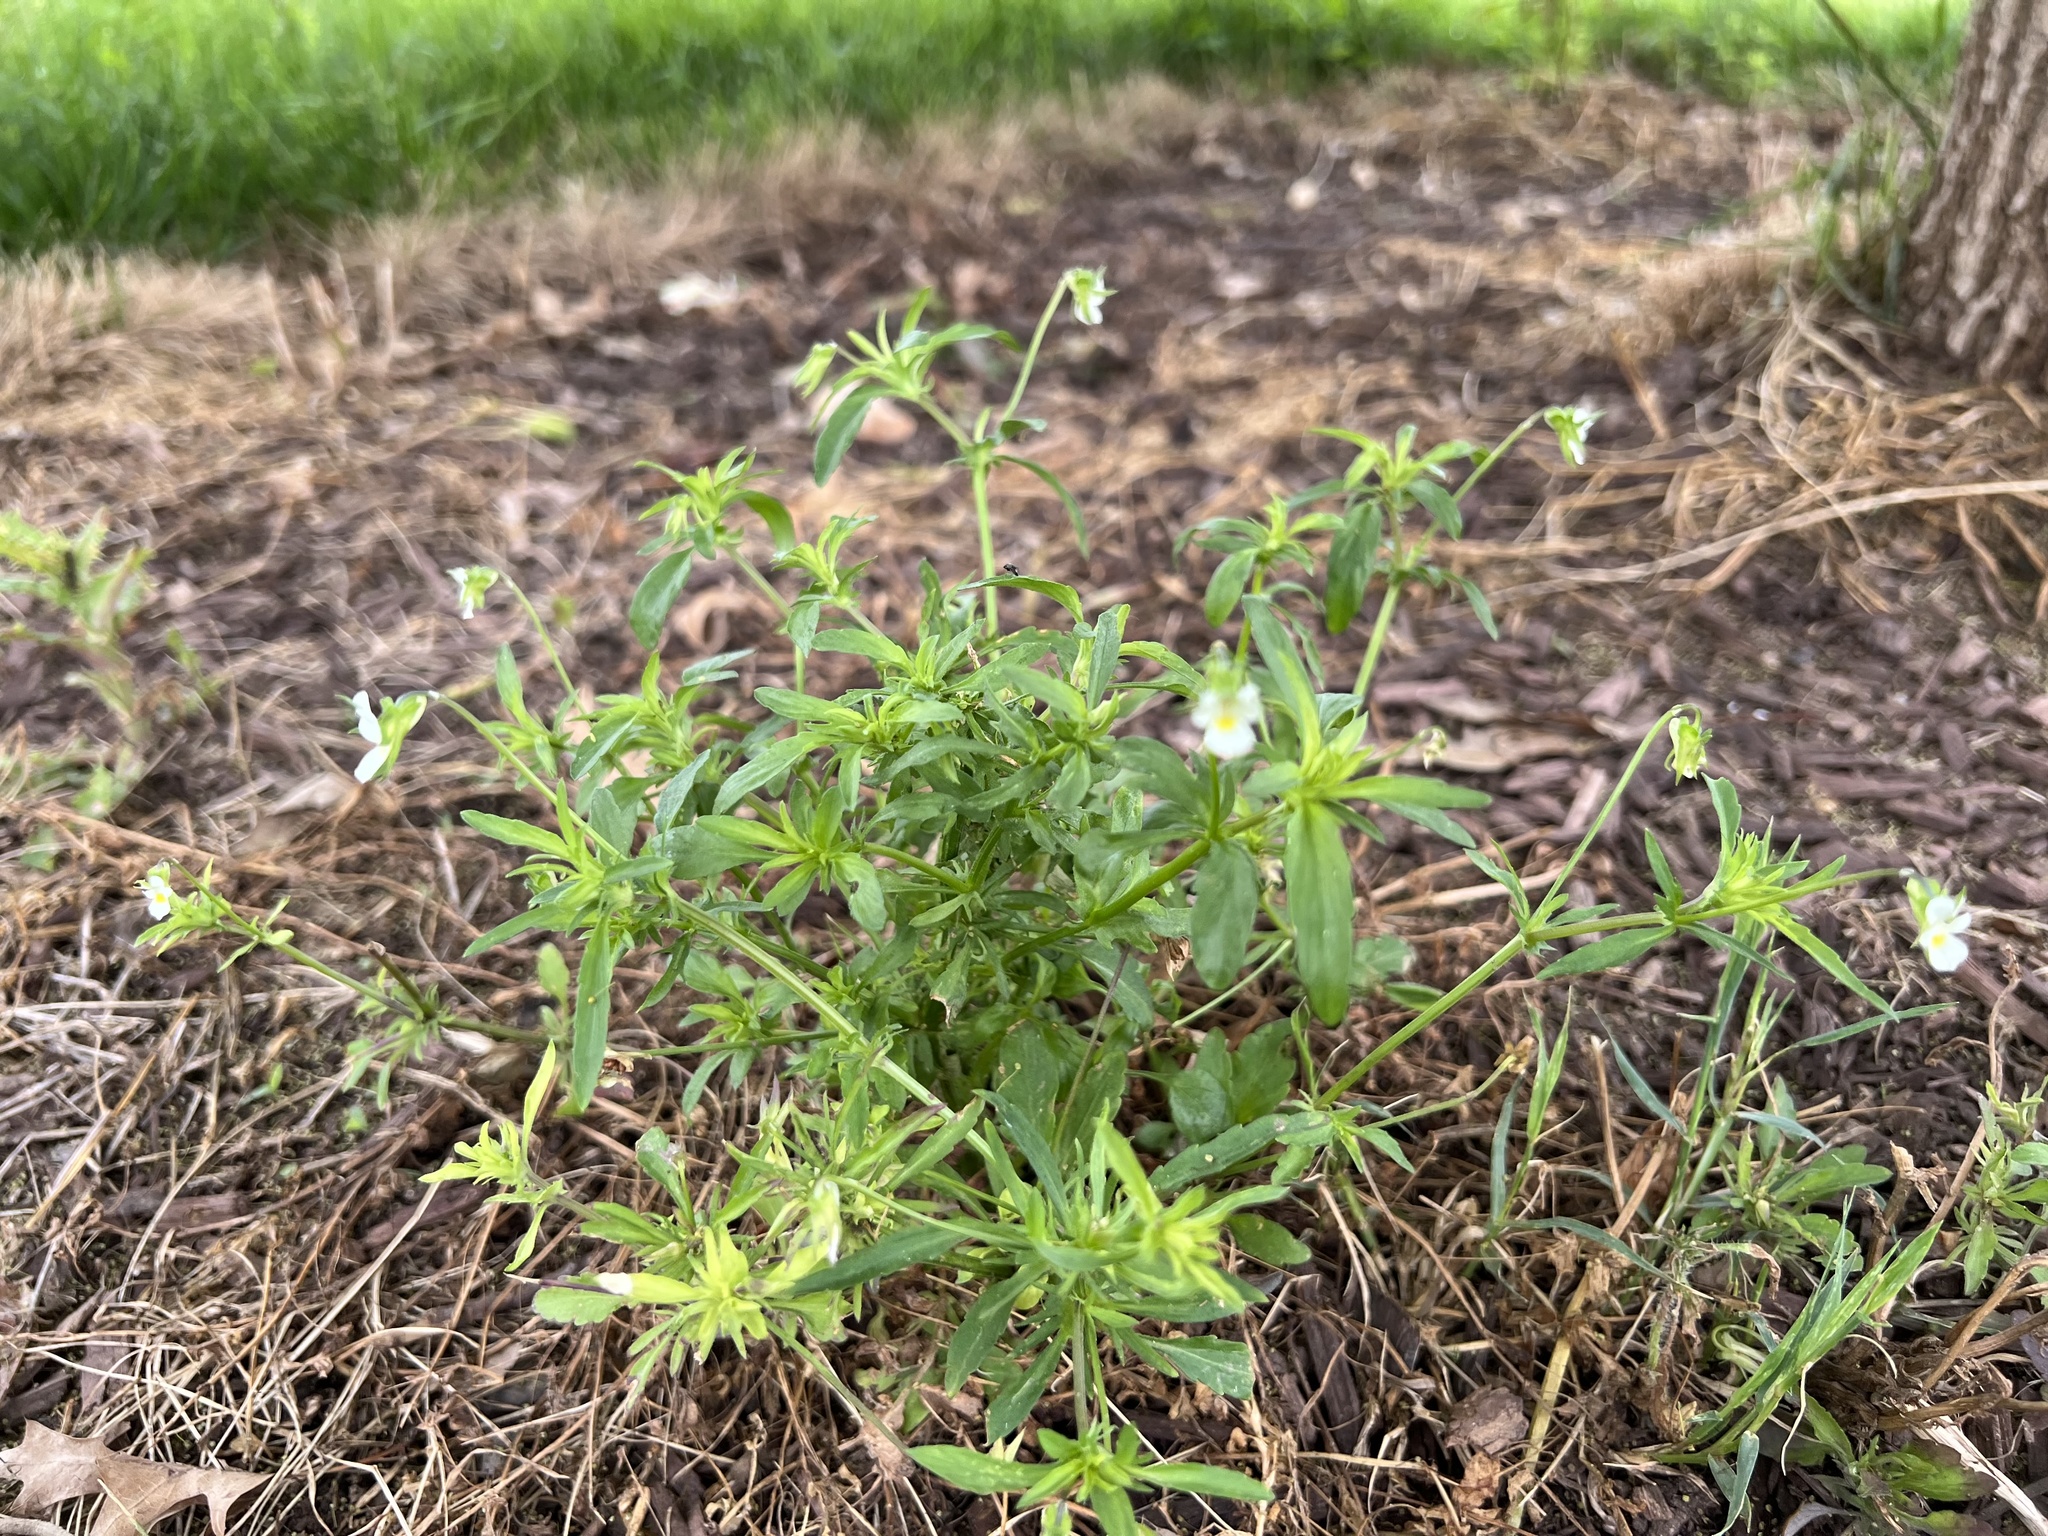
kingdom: Plantae
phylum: Tracheophyta
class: Magnoliopsida
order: Malpighiales
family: Violaceae
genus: Viola
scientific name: Viola arvensis
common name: Field pansy
